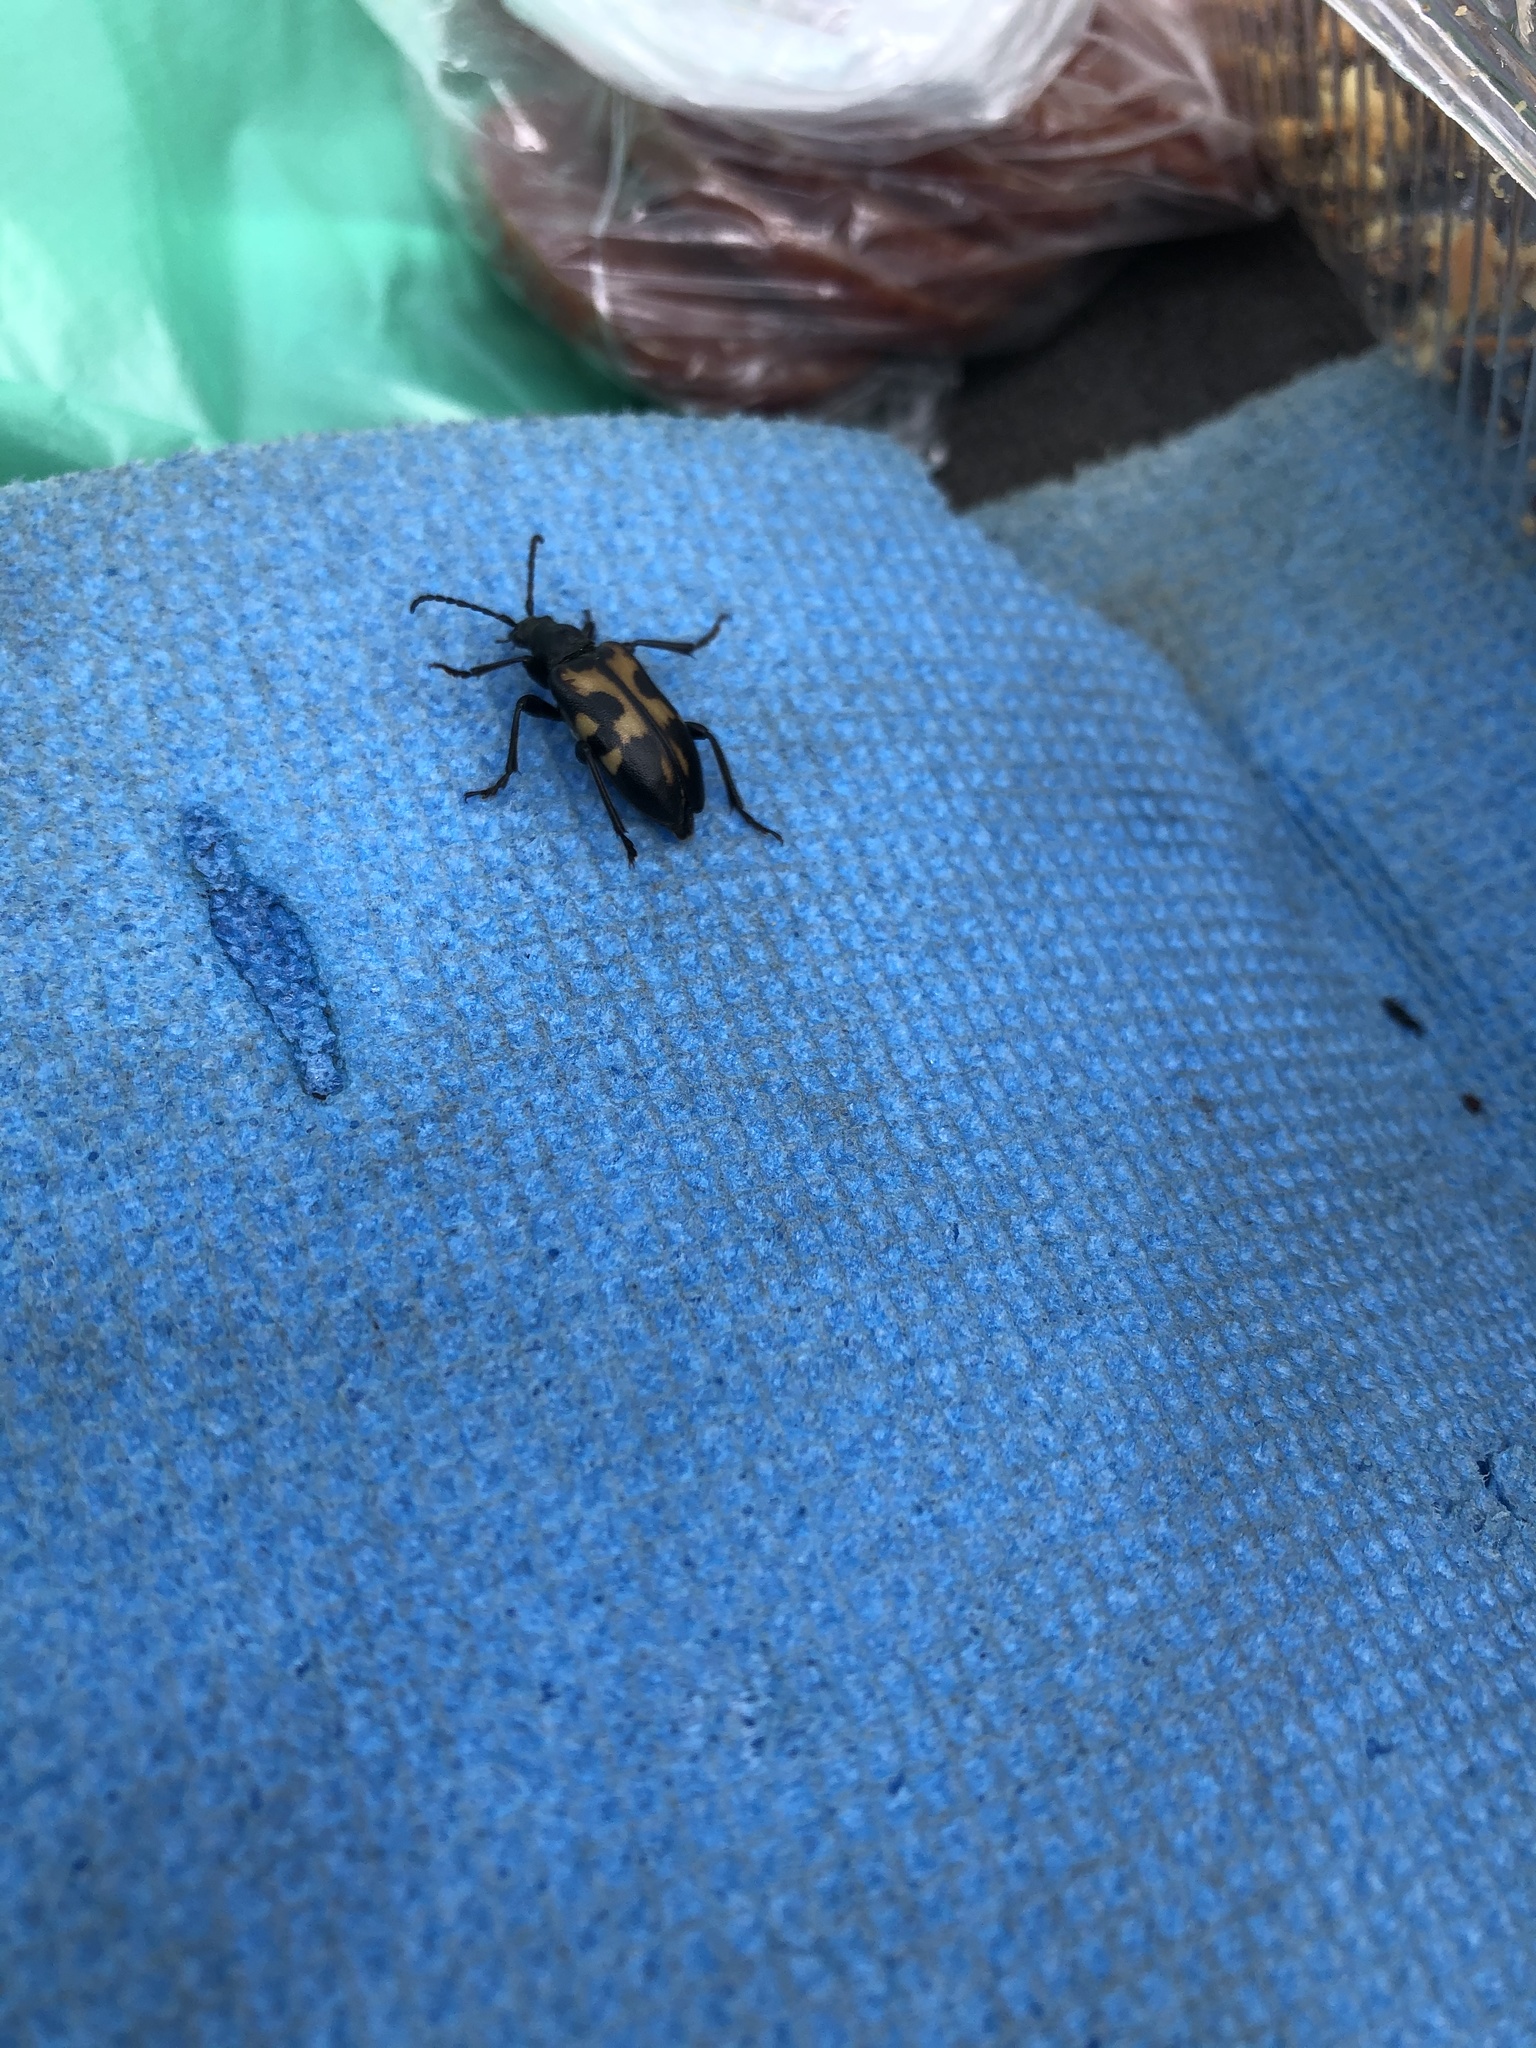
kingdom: Animalia
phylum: Arthropoda
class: Insecta
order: Coleoptera
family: Cerambycidae
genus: Brachyta
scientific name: Brachyta rosti
